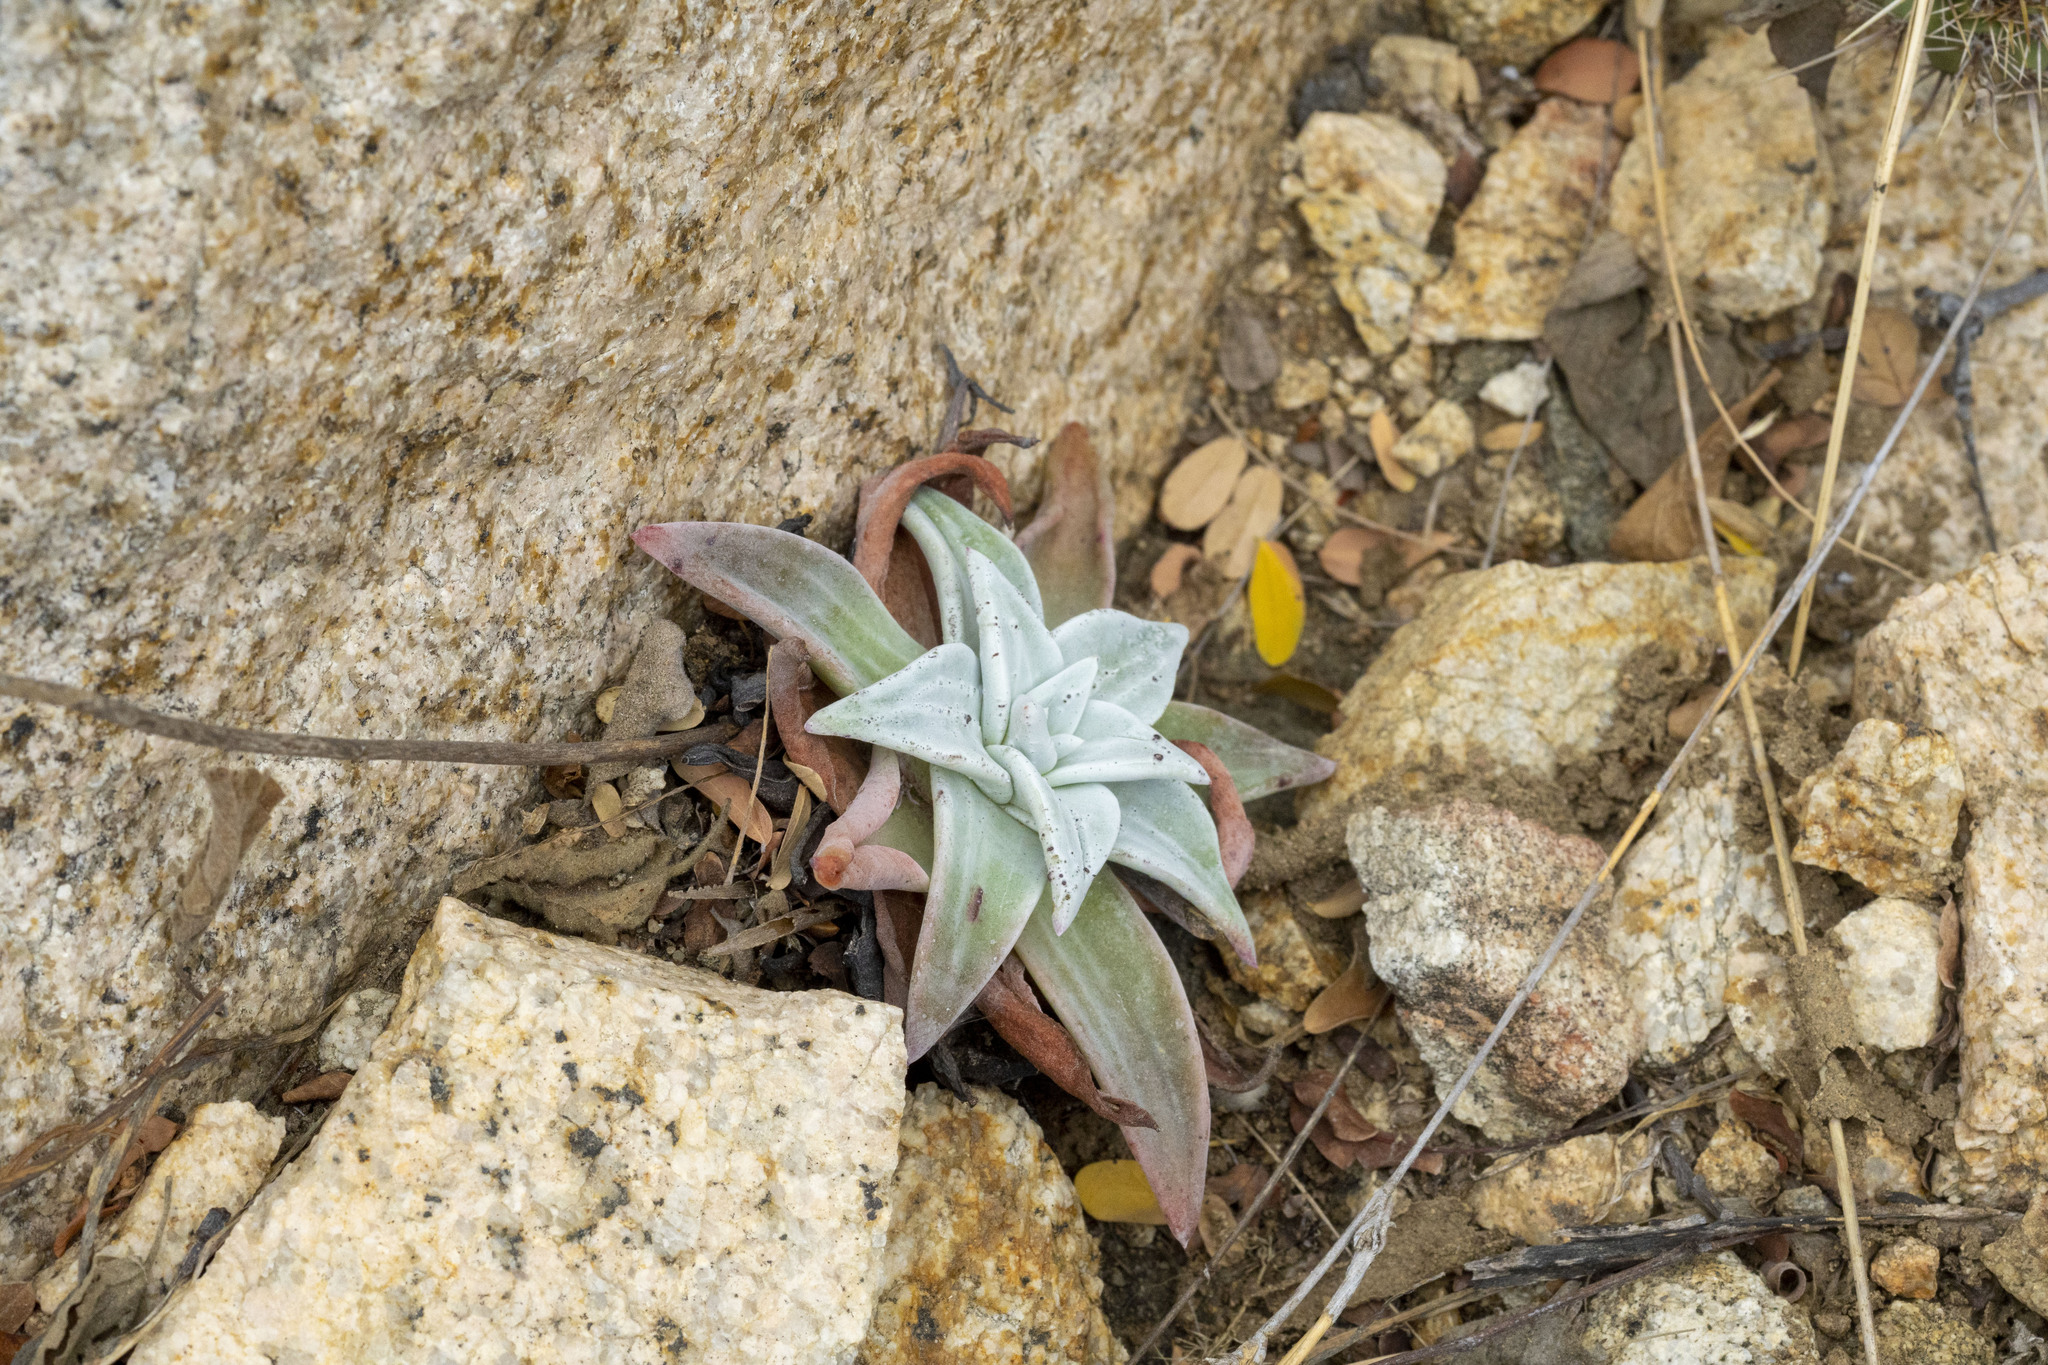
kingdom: Plantae
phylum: Tracheophyta
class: Magnoliopsida
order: Saxifragales
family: Crassulaceae
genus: Dudleya
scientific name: Dudleya nubigena
